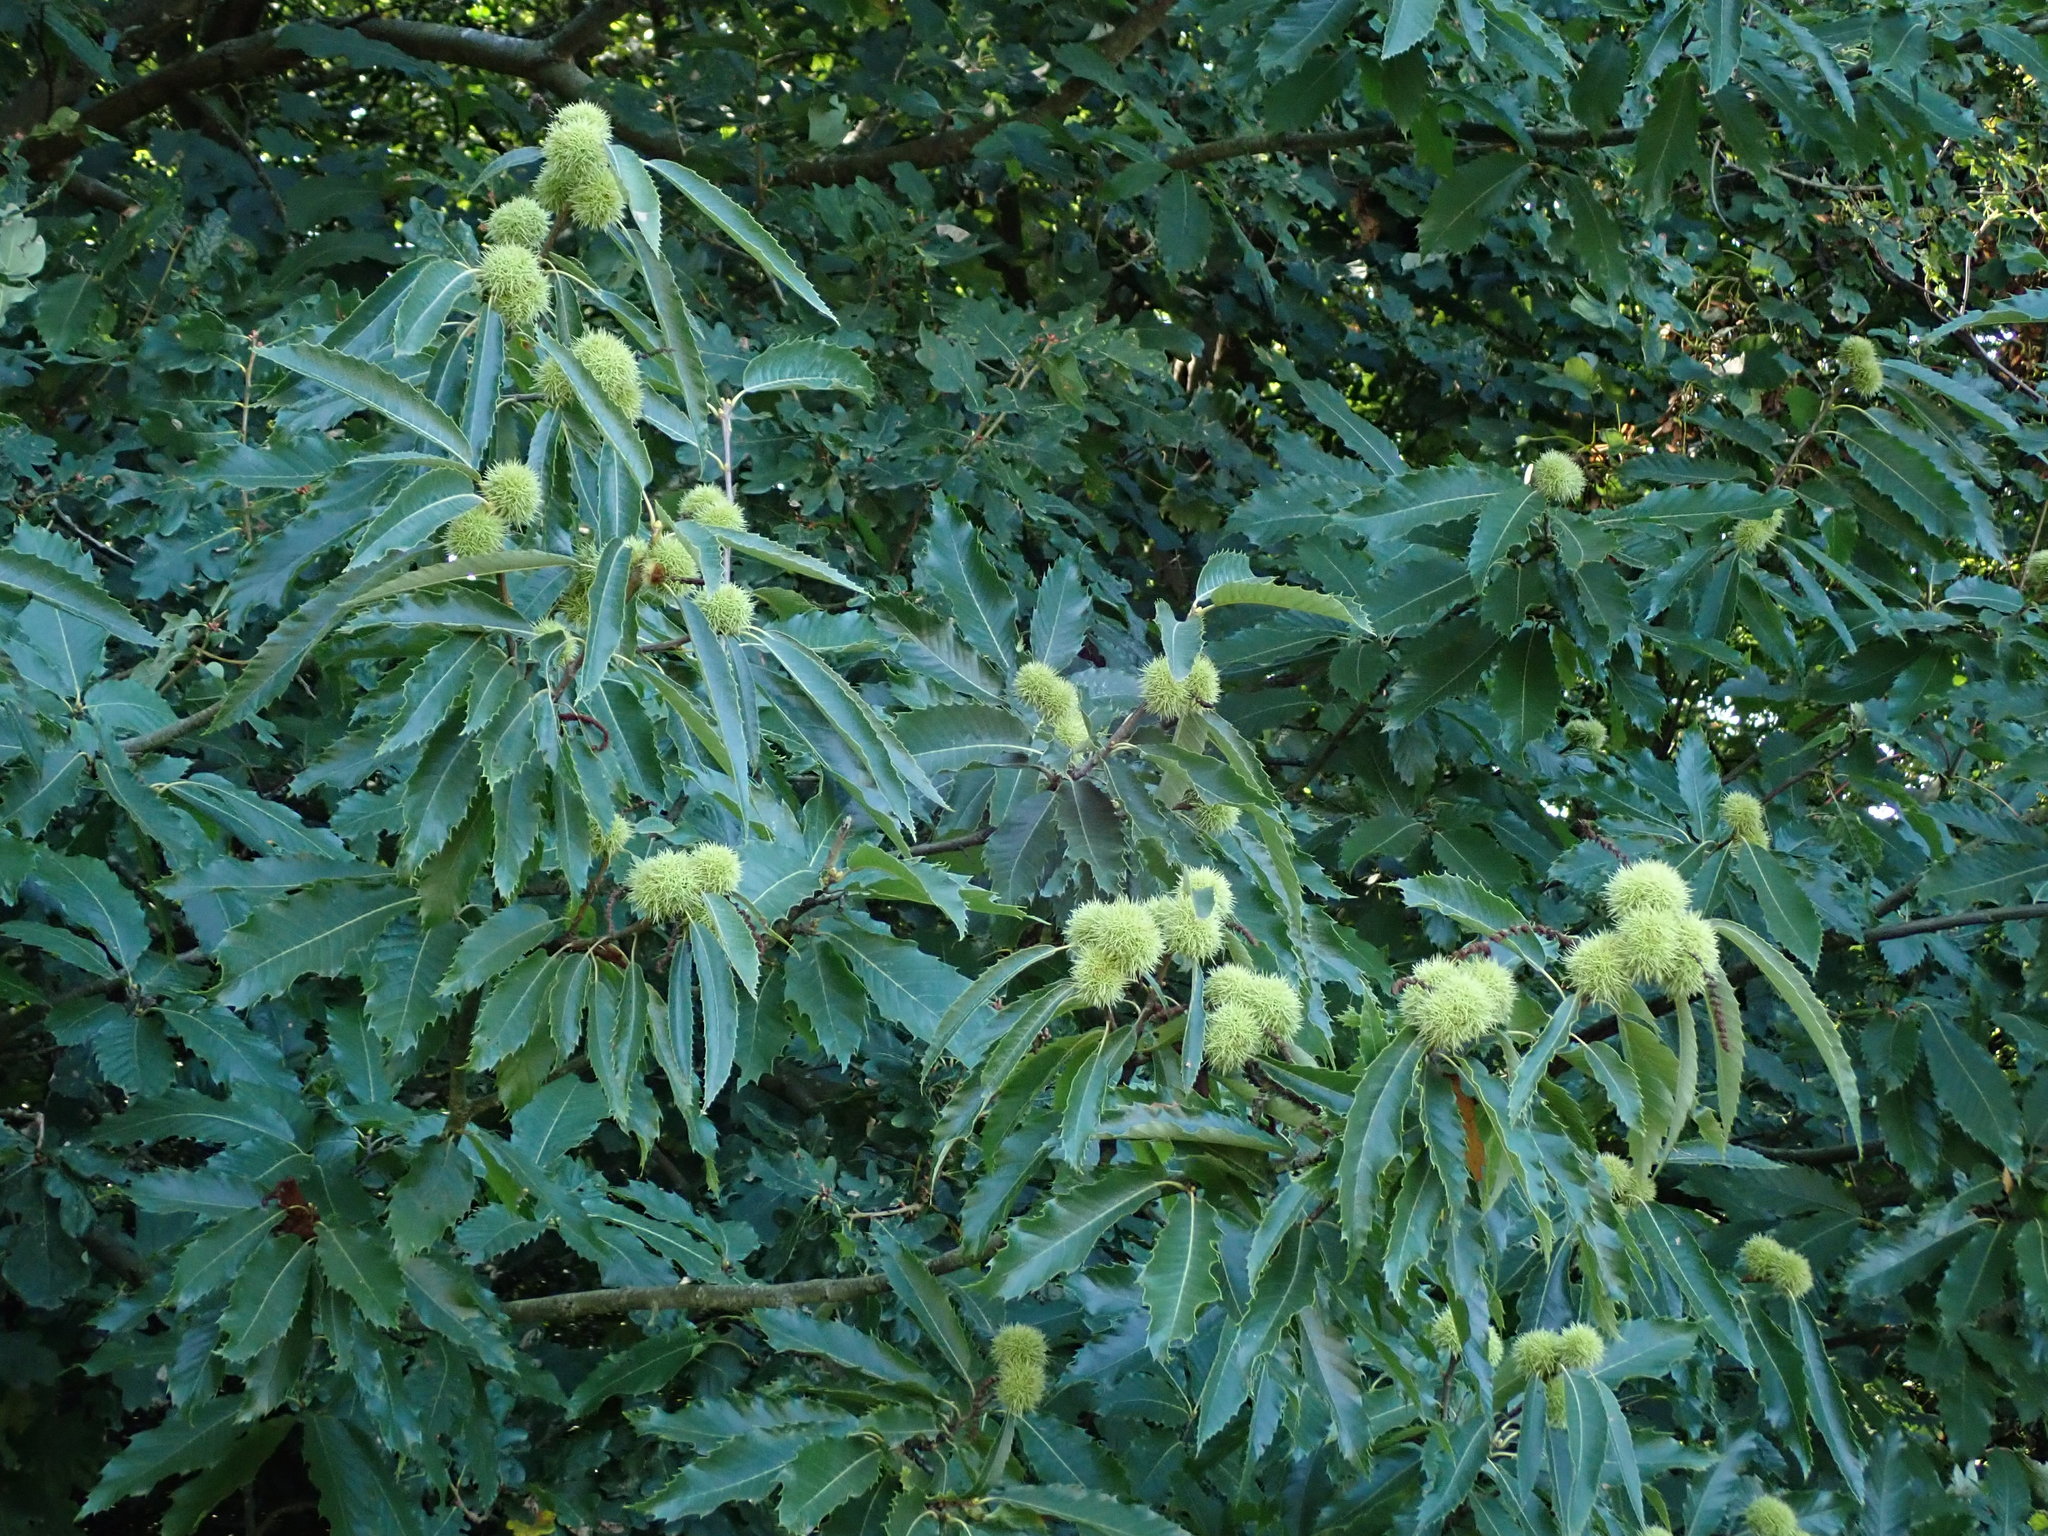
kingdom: Plantae
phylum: Tracheophyta
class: Magnoliopsida
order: Fagales
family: Fagaceae
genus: Castanea
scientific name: Castanea sativa
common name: Sweet chestnut
